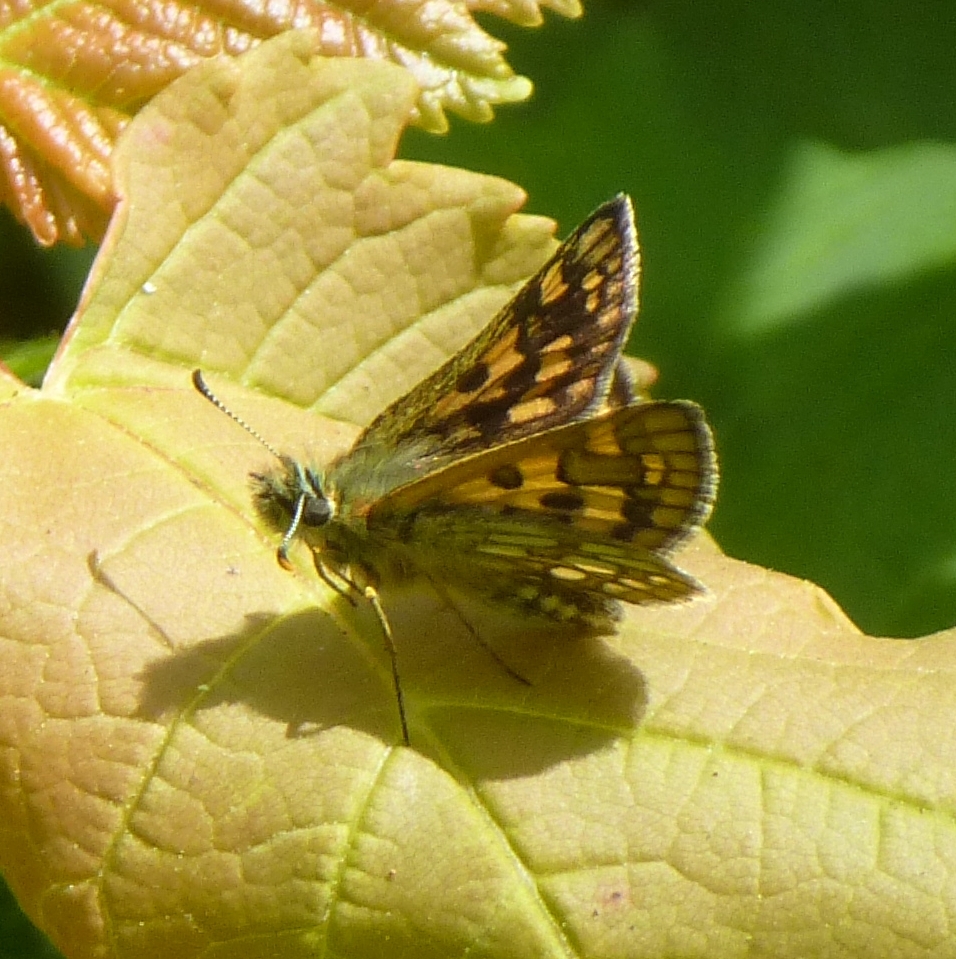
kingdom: Animalia
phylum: Arthropoda
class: Insecta
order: Lepidoptera
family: Hesperiidae
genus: Carterocephalus
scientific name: Carterocephalus palaemon
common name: Chequered skipper
